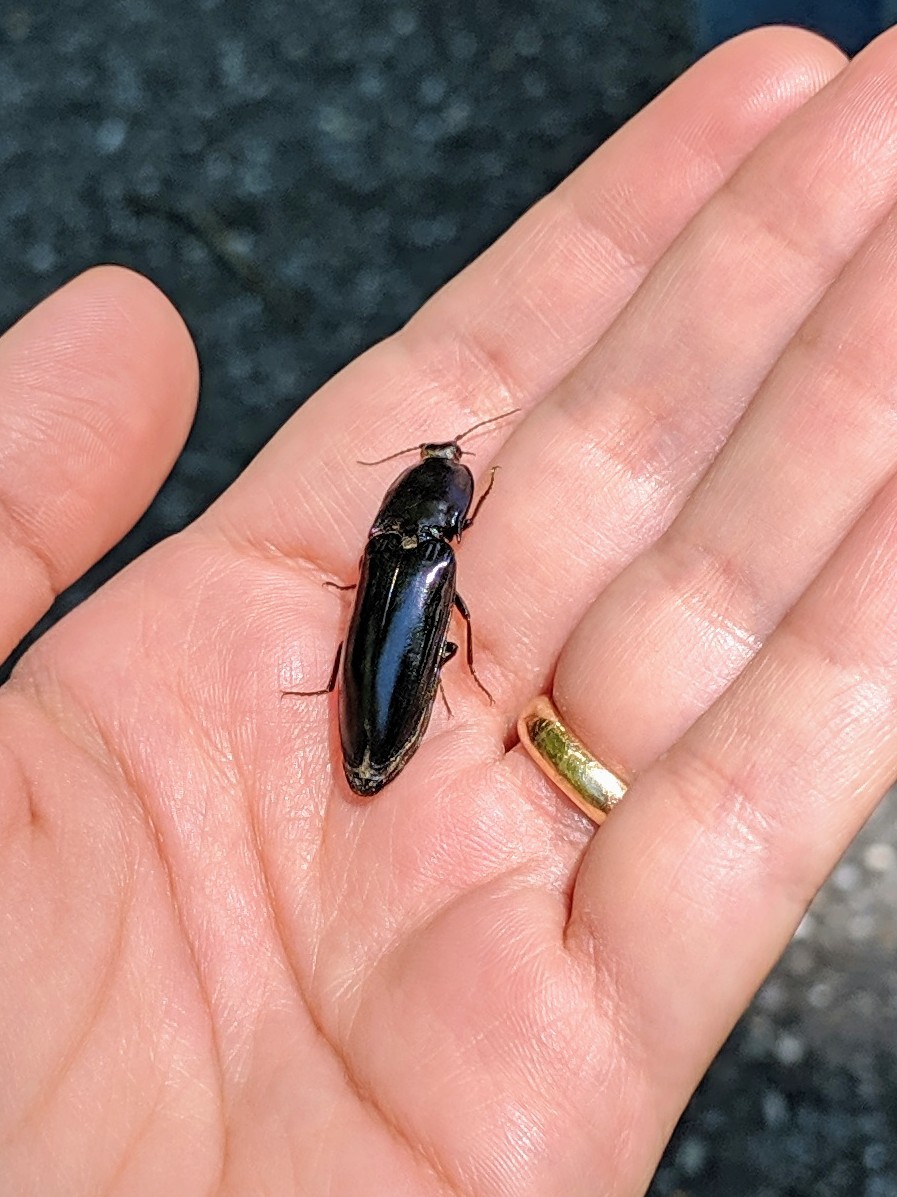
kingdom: Animalia
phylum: Arthropoda
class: Insecta
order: Coleoptera
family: Elateridae
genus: Melanactes
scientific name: Melanactes piceus
